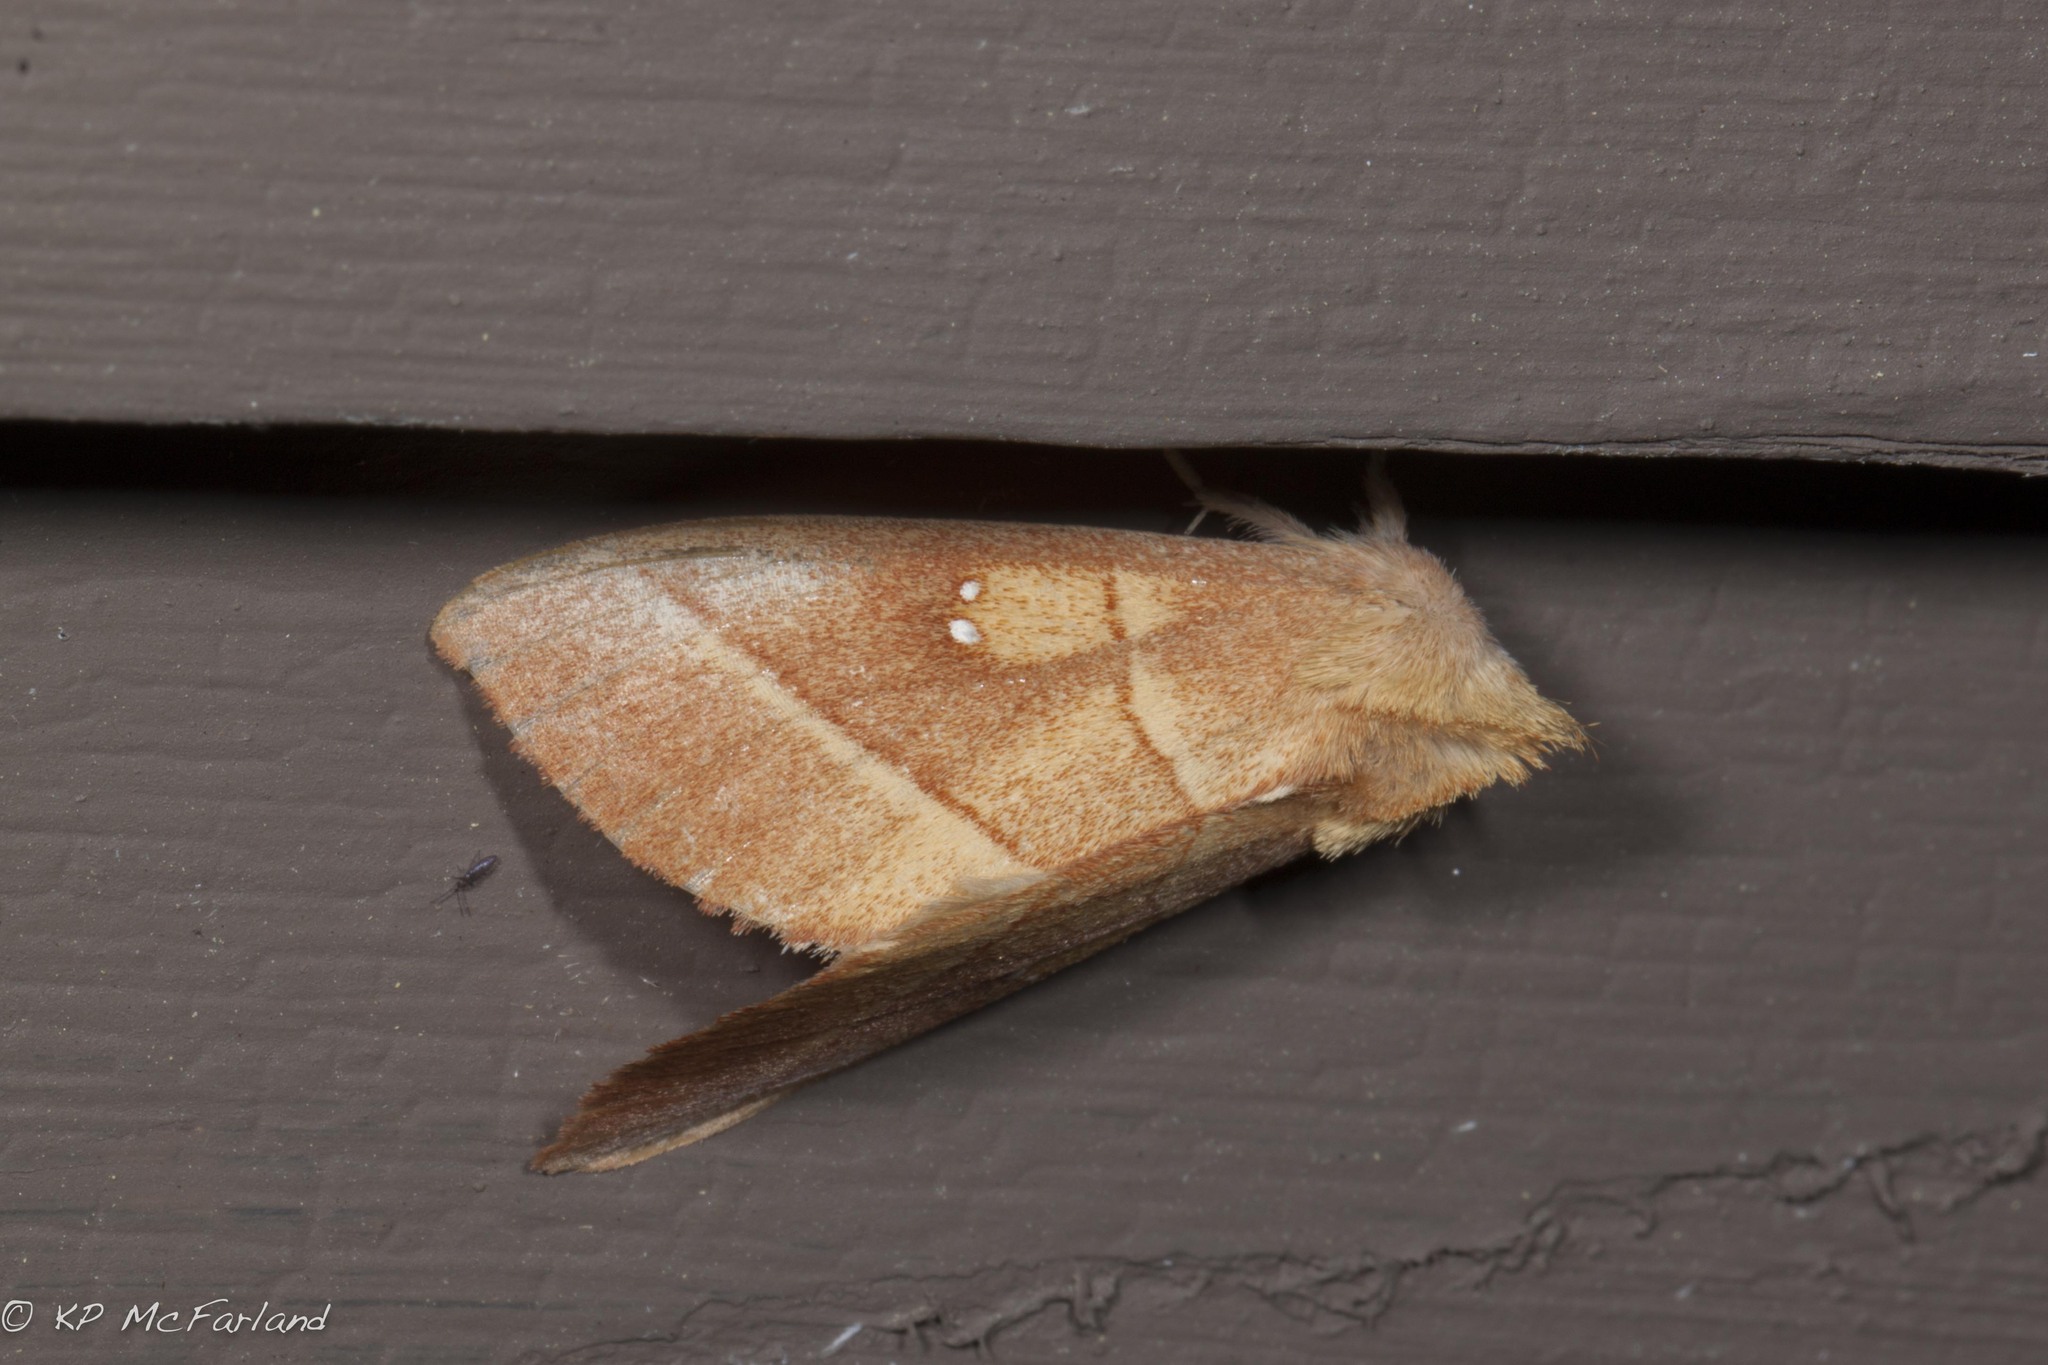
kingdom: Animalia
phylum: Arthropoda
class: Insecta
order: Lepidoptera
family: Notodontidae
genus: Nadata
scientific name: Nadata gibbosa
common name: White-dotted prominent
